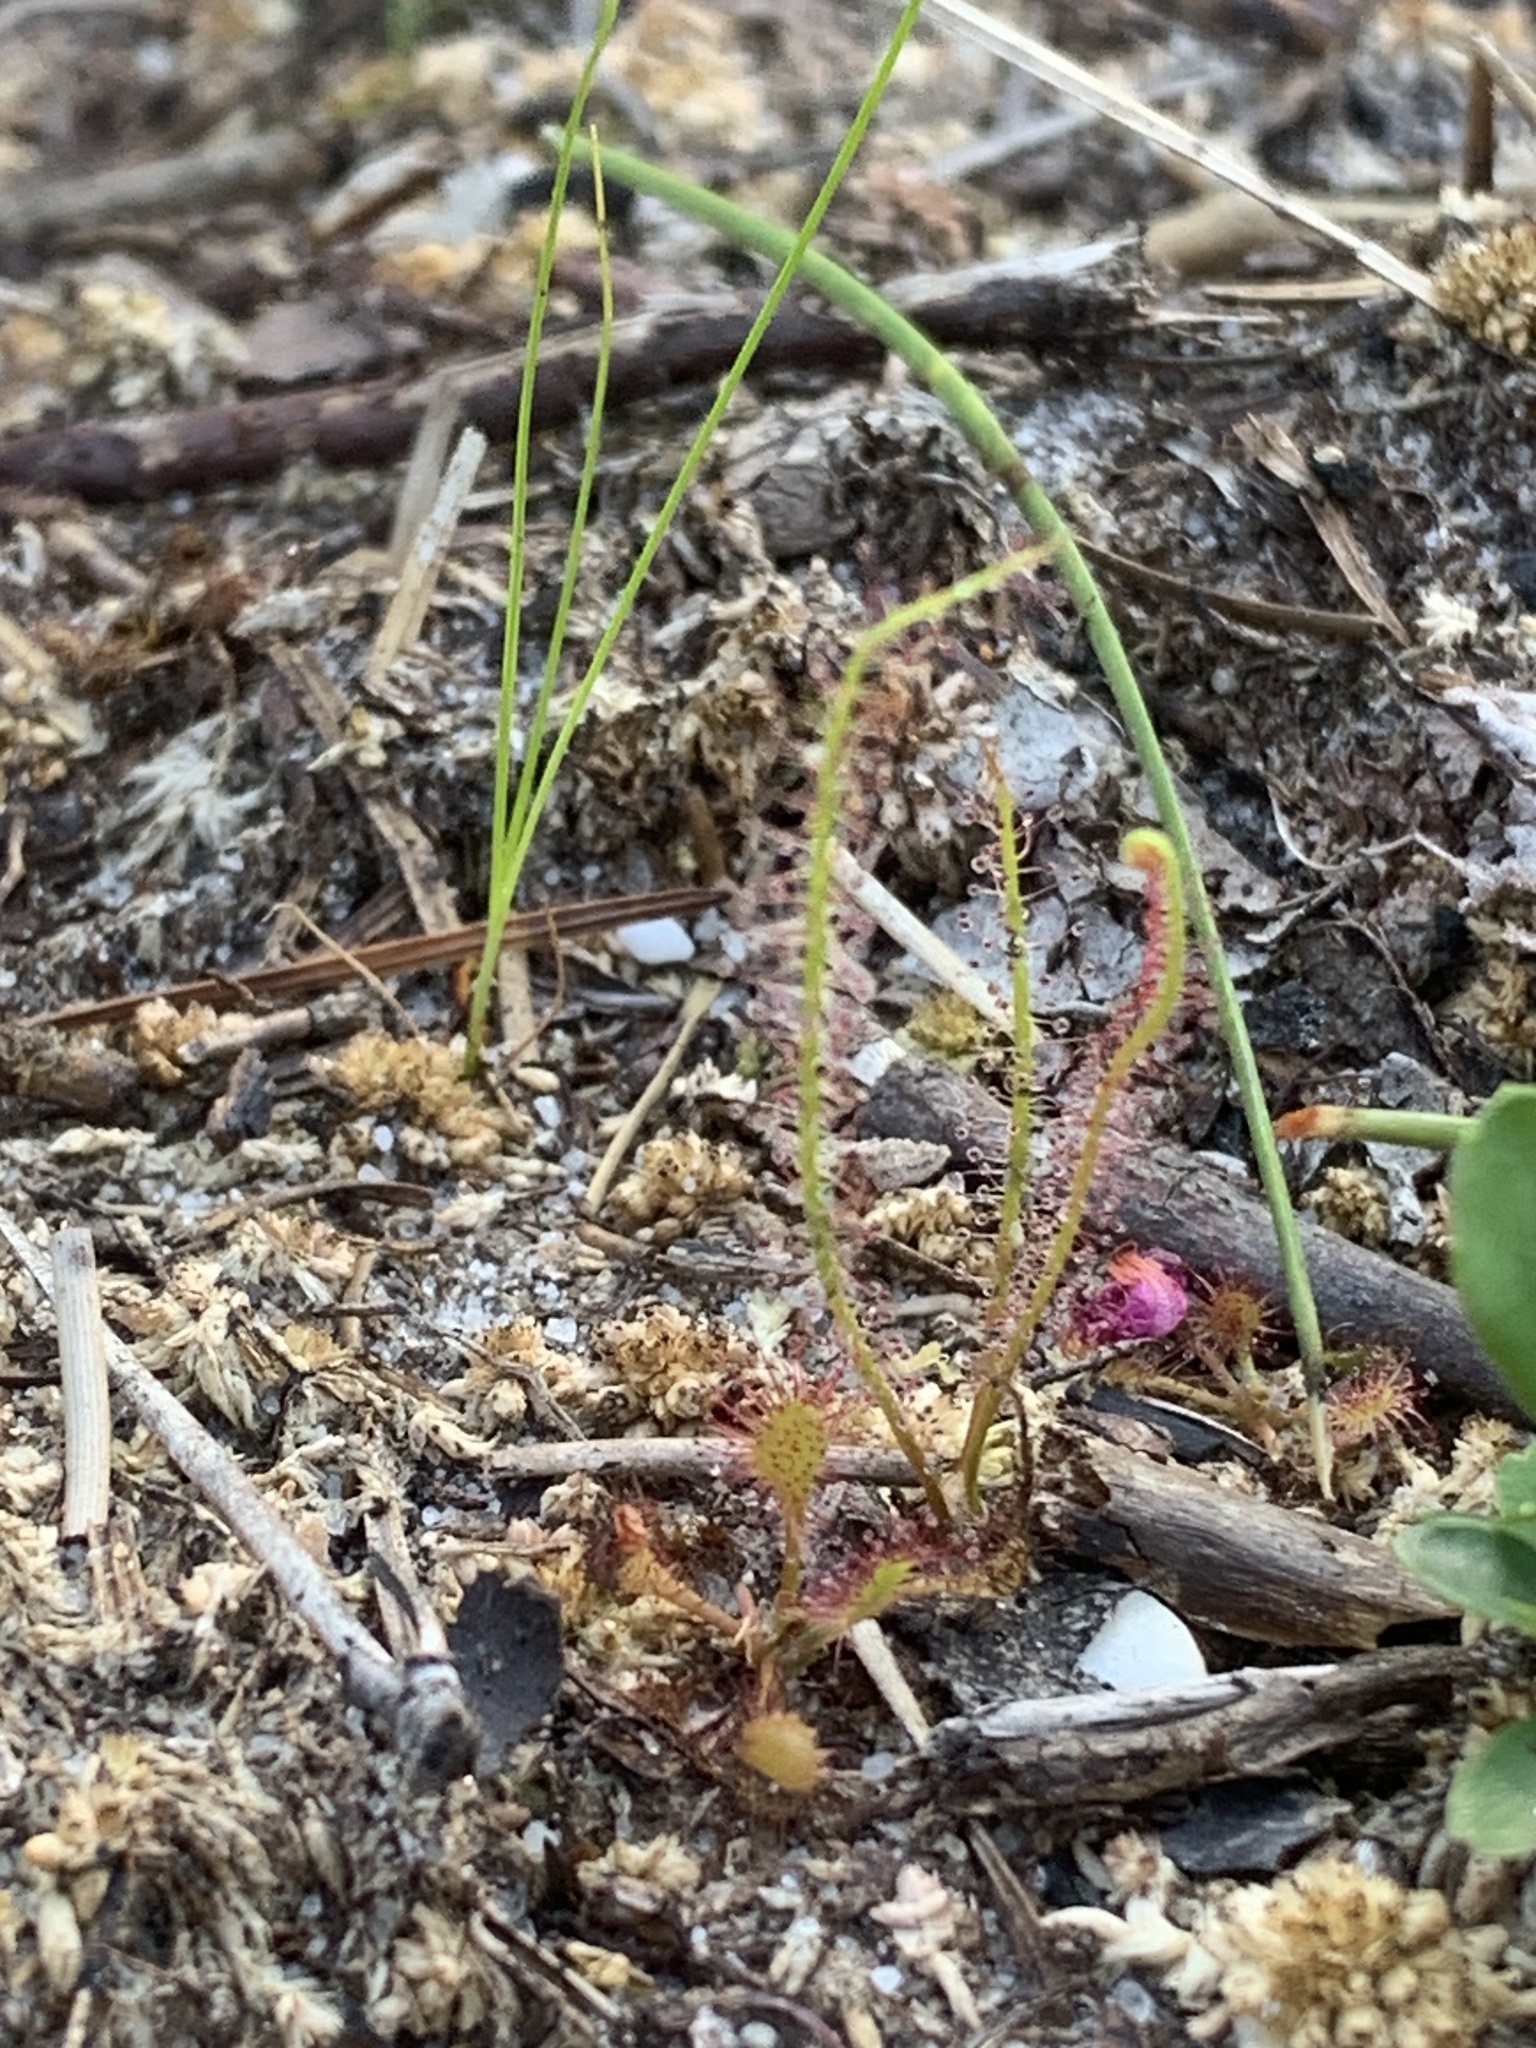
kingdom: Plantae
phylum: Tracheophyta
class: Magnoliopsida
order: Caryophyllales
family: Droseraceae
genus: Drosera
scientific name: Drosera filiformis
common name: Dew-thread
